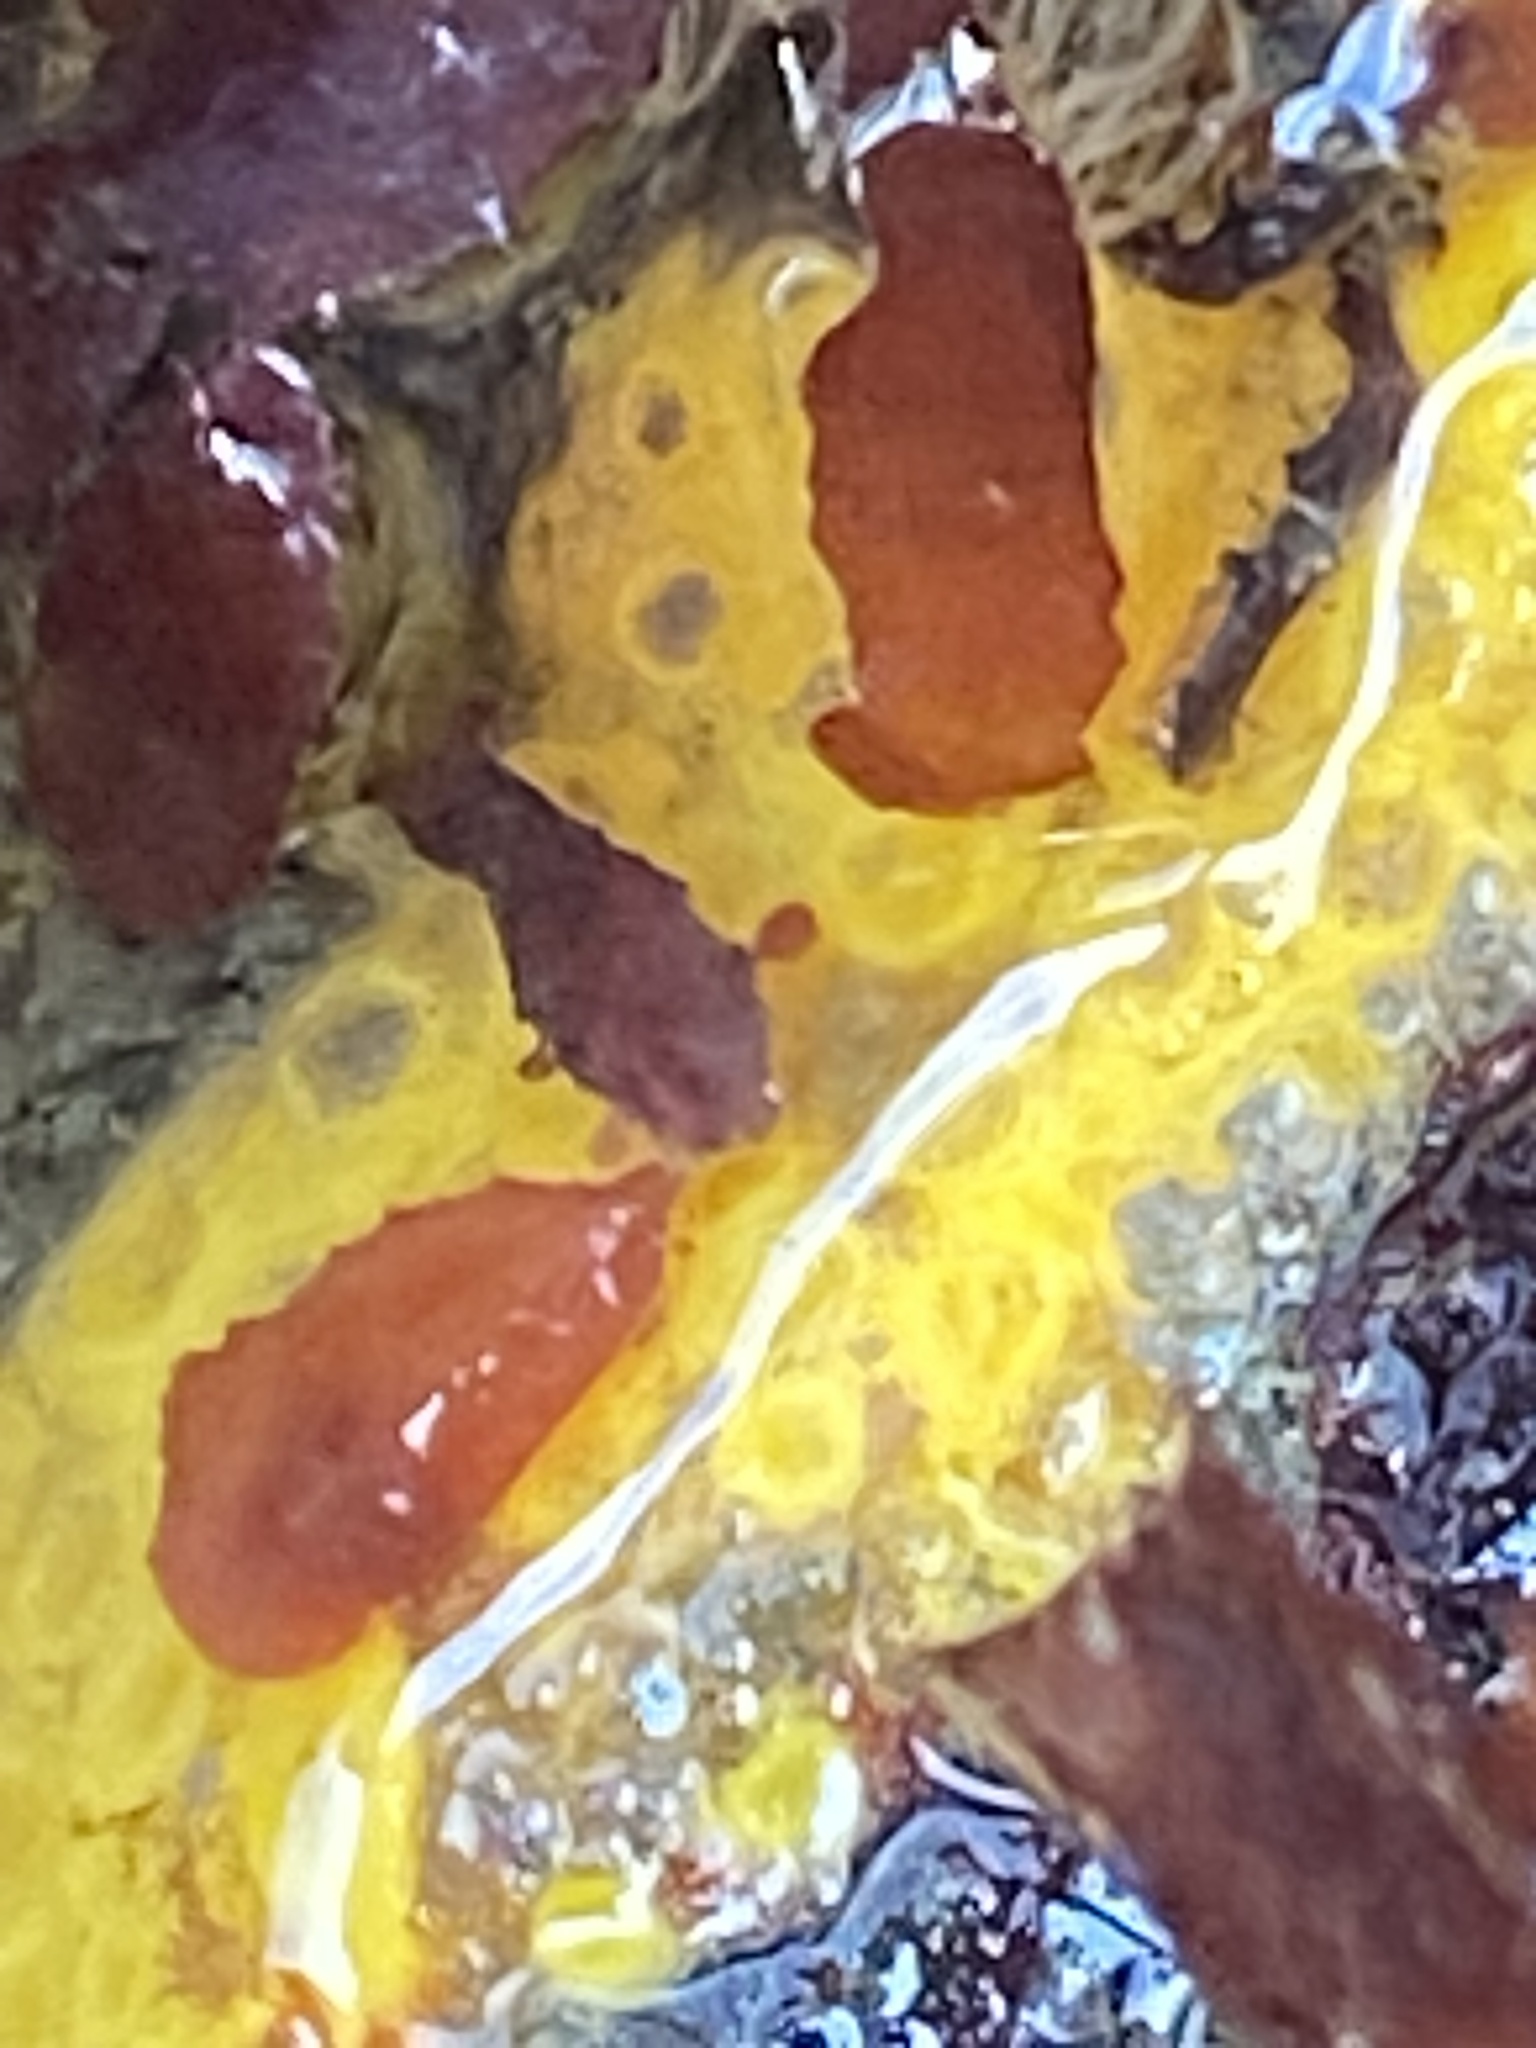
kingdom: Animalia
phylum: Porifera
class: Demospongiae
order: Clionaida
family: Clionaidae
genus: Cliona
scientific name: Cliona californiana
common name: California boring horny sponge
